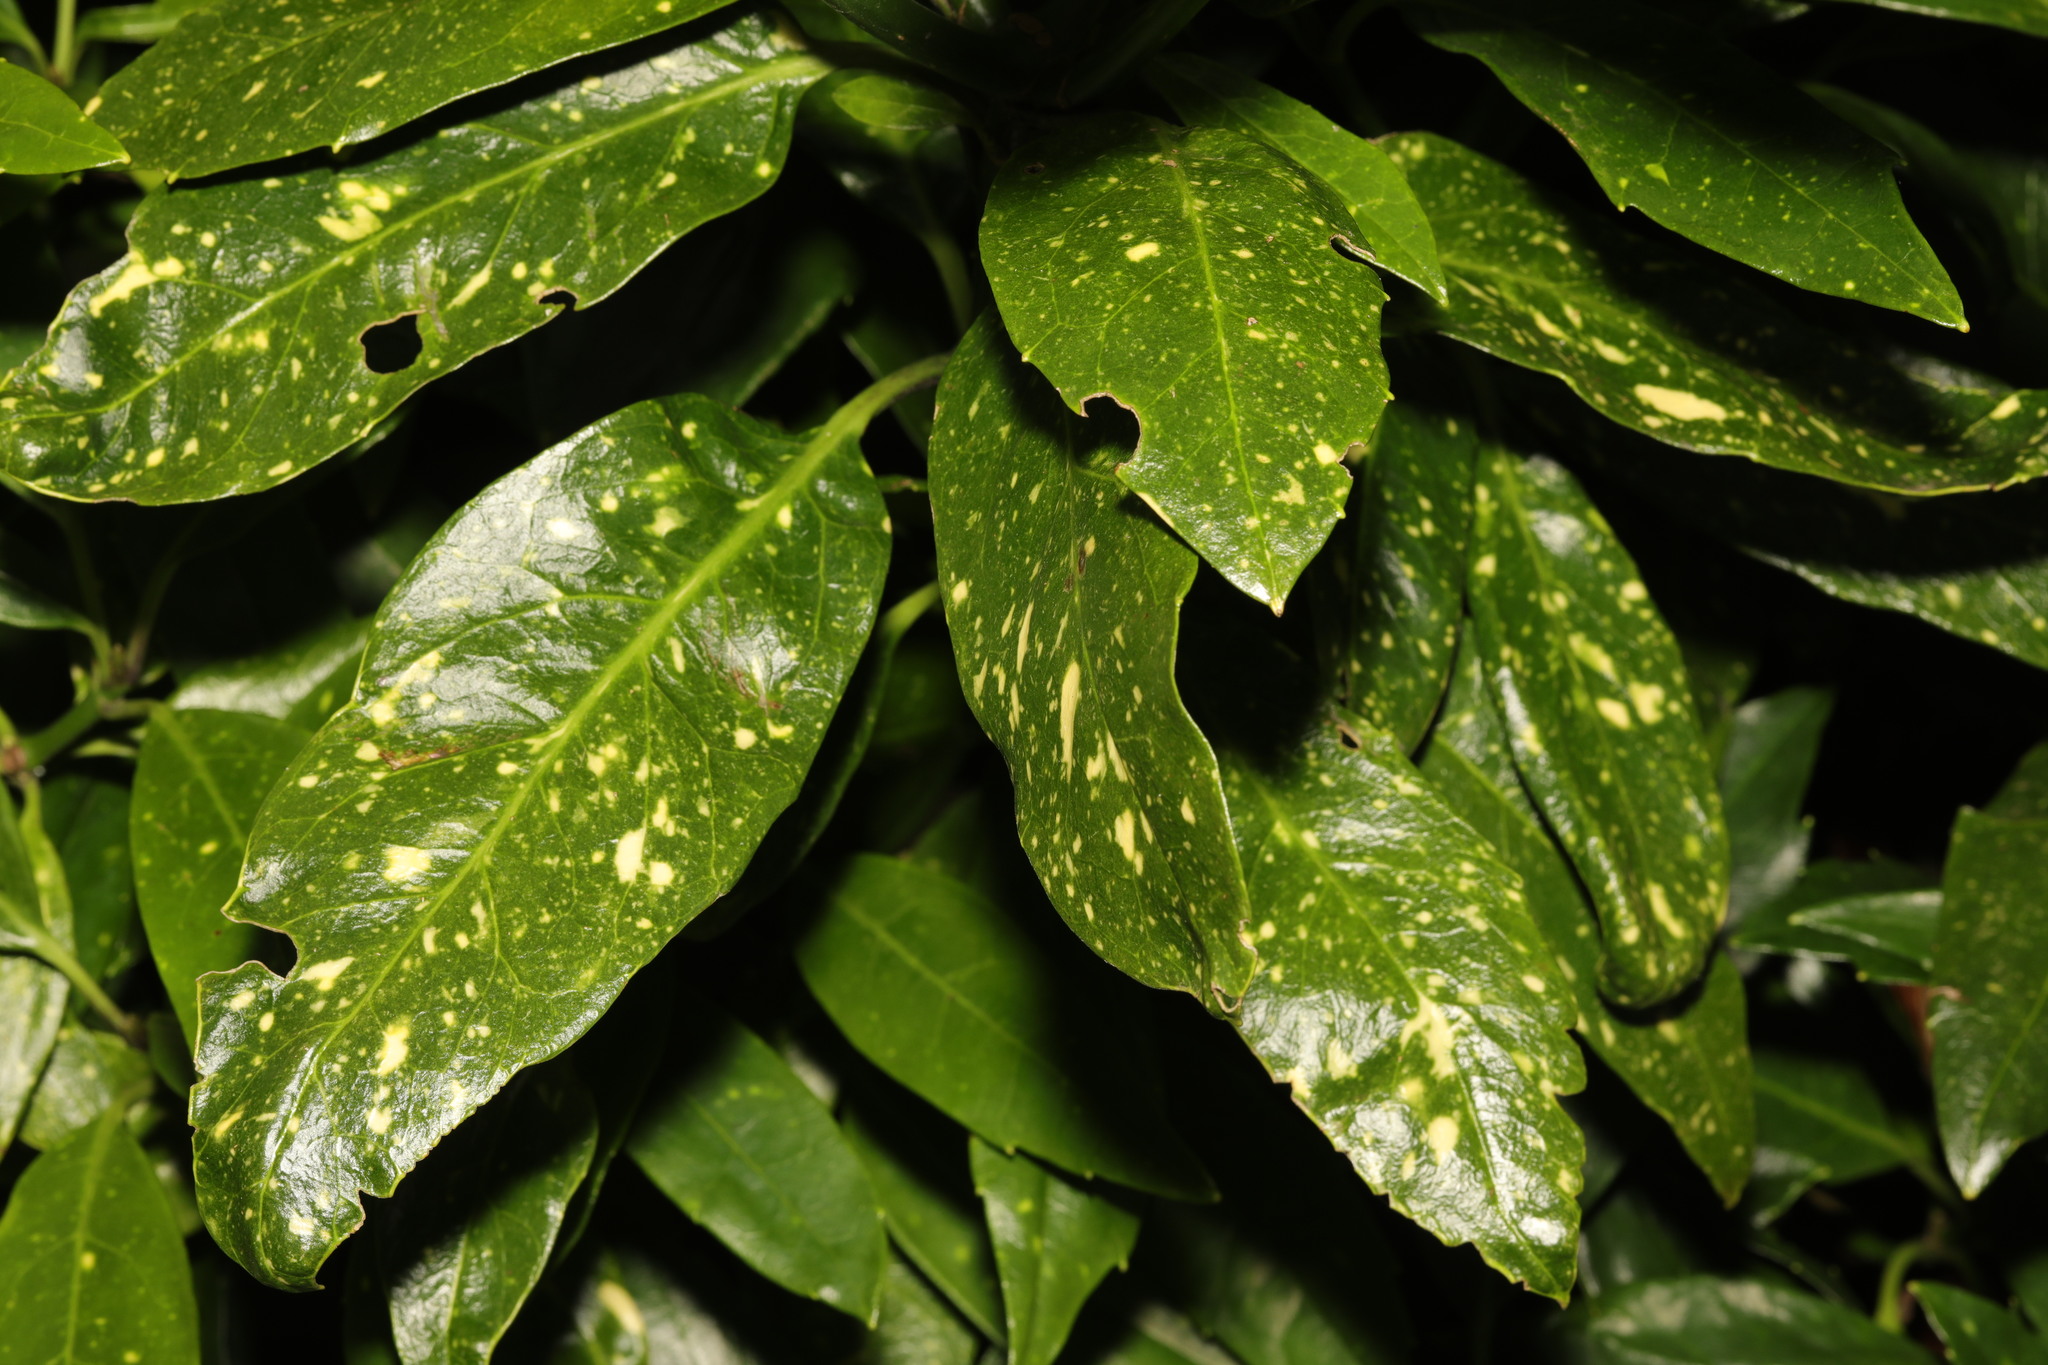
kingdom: Plantae
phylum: Tracheophyta
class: Magnoliopsida
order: Garryales
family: Garryaceae
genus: Aucuba
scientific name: Aucuba japonica
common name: Spotted-laurel
